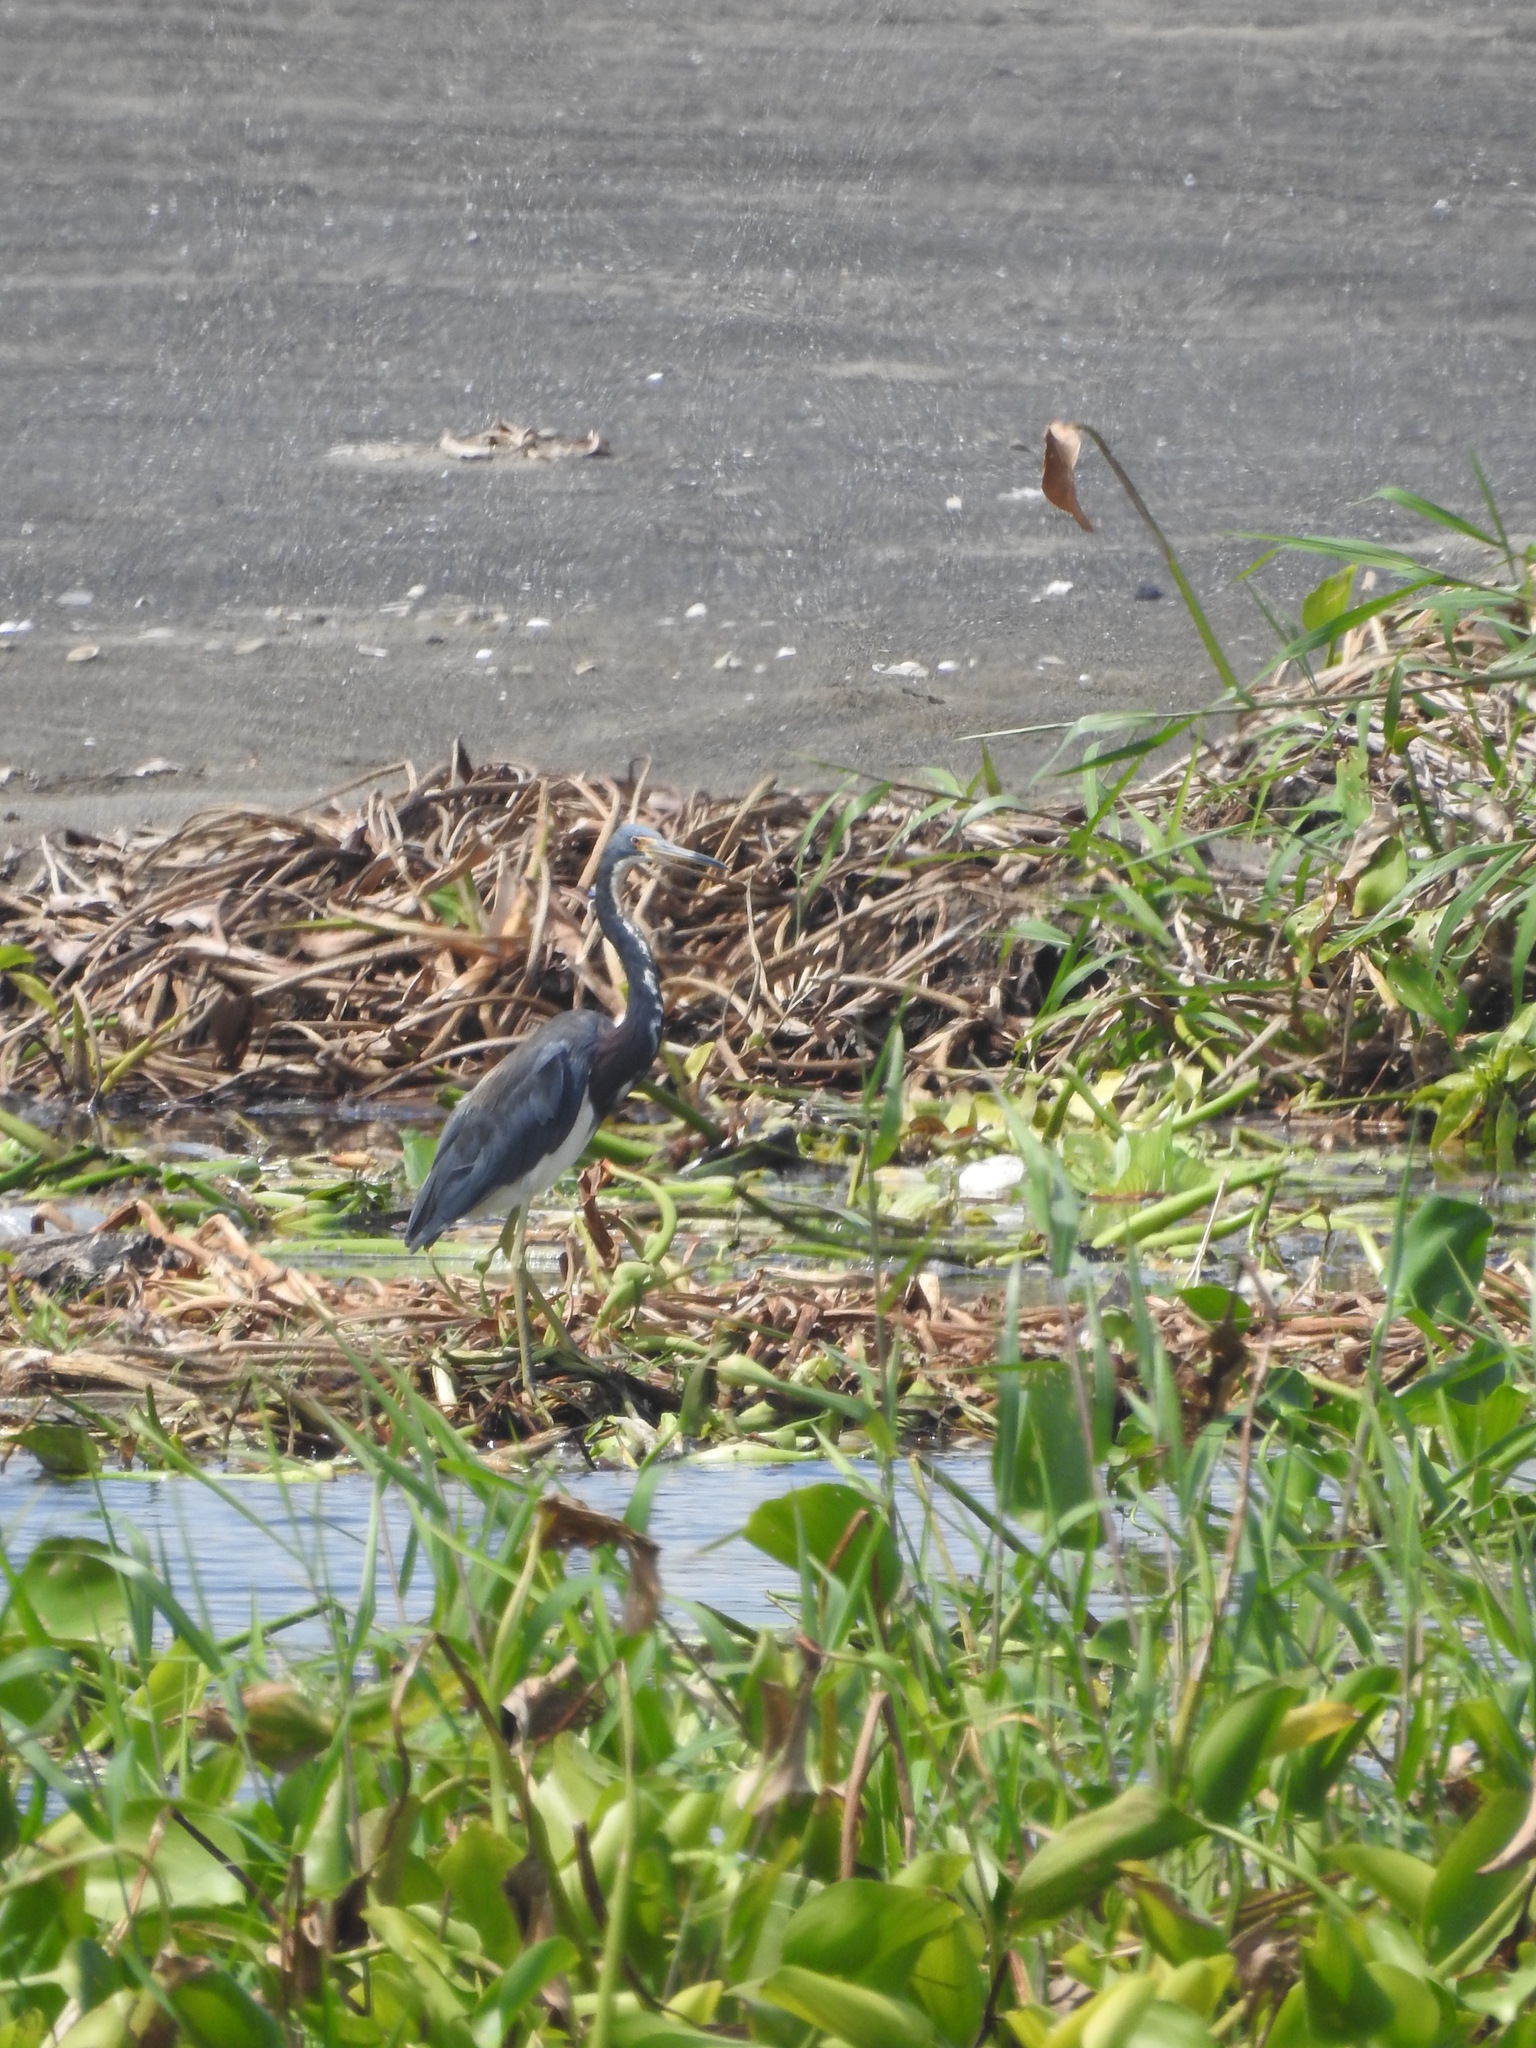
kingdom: Animalia
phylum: Chordata
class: Aves
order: Pelecaniformes
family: Ardeidae
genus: Egretta
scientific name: Egretta tricolor
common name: Tricolored heron
